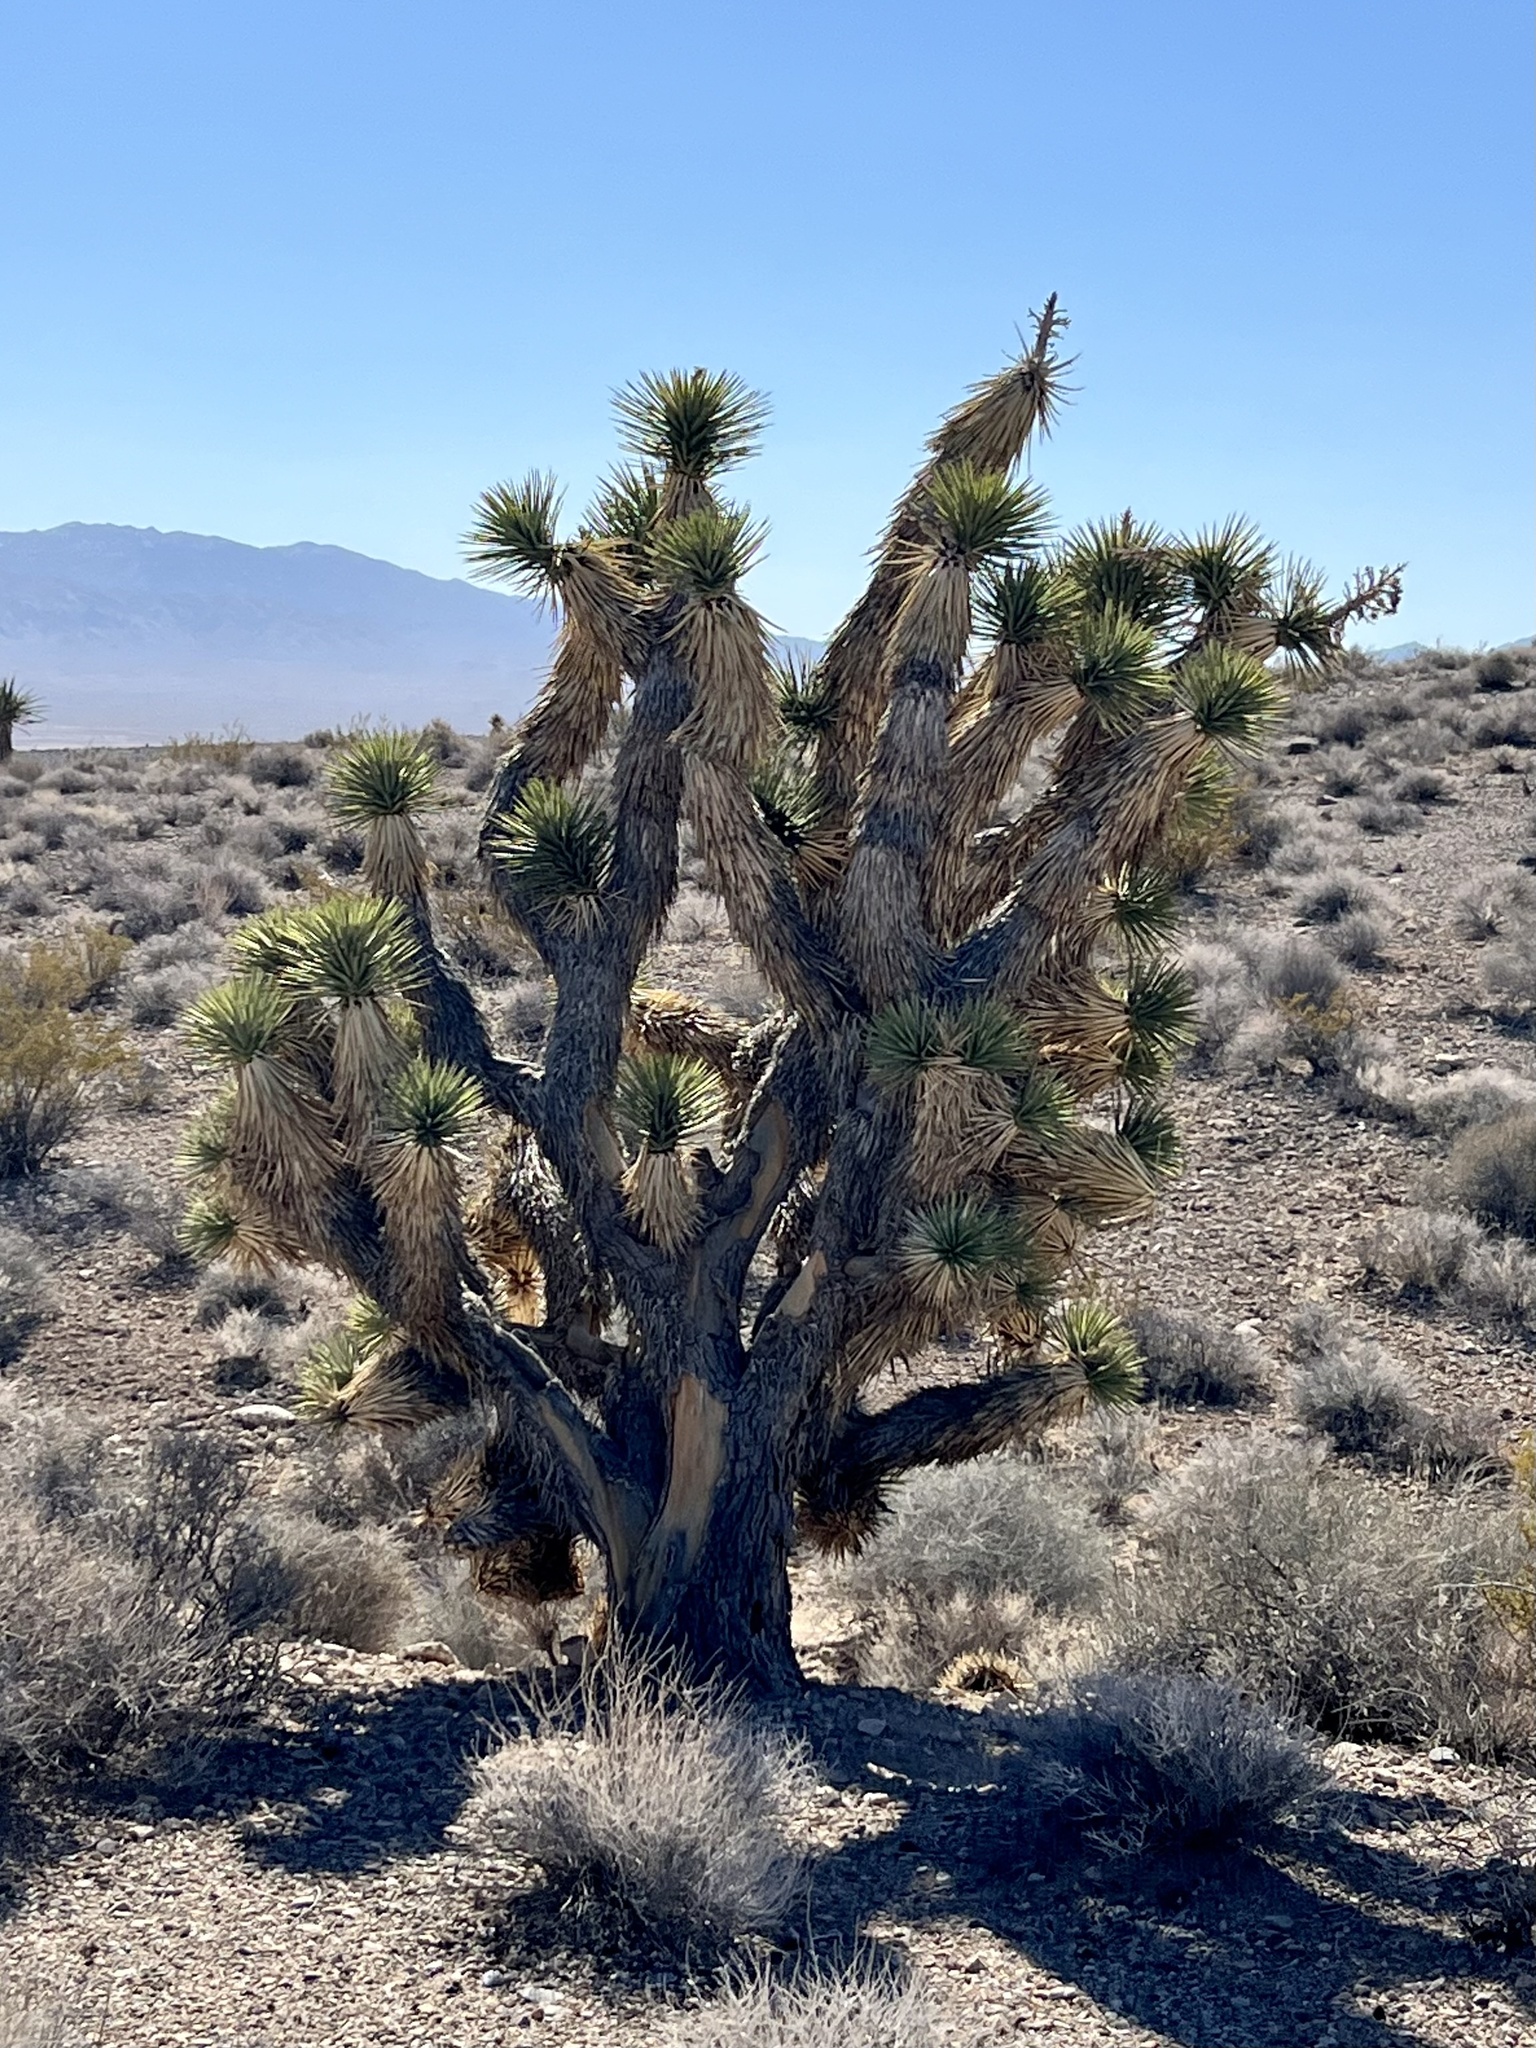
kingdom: Plantae
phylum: Tracheophyta
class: Liliopsida
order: Asparagales
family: Asparagaceae
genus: Yucca
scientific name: Yucca brevifolia
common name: Joshua tree
